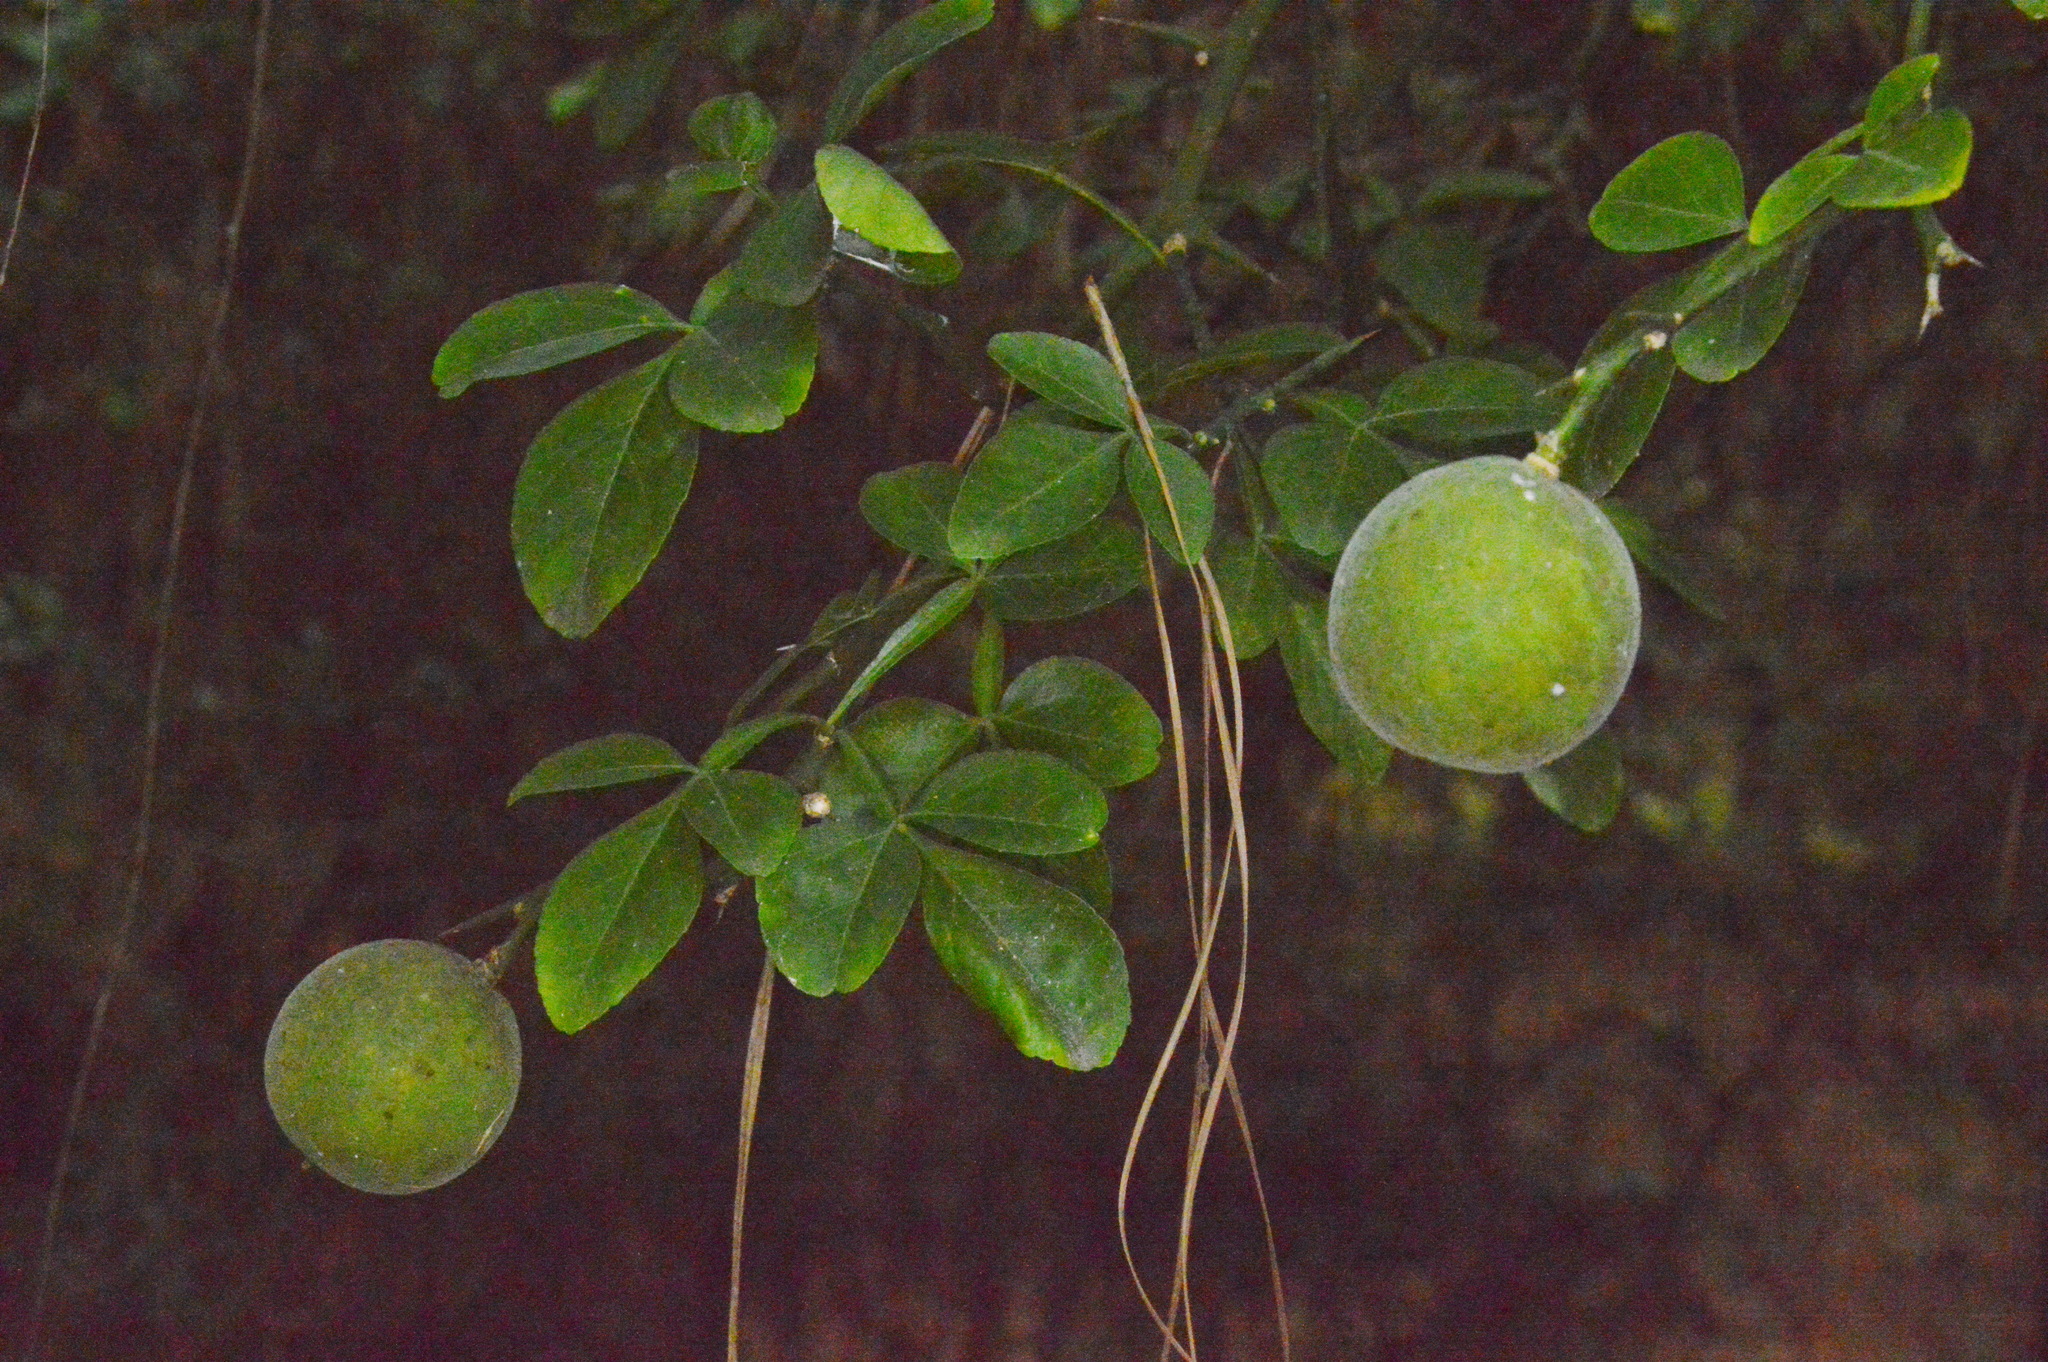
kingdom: Plantae
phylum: Tracheophyta
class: Magnoliopsida
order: Sapindales
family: Rutaceae
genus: Citrus
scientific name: Citrus trifoliata
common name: Japanese bitter-orange
